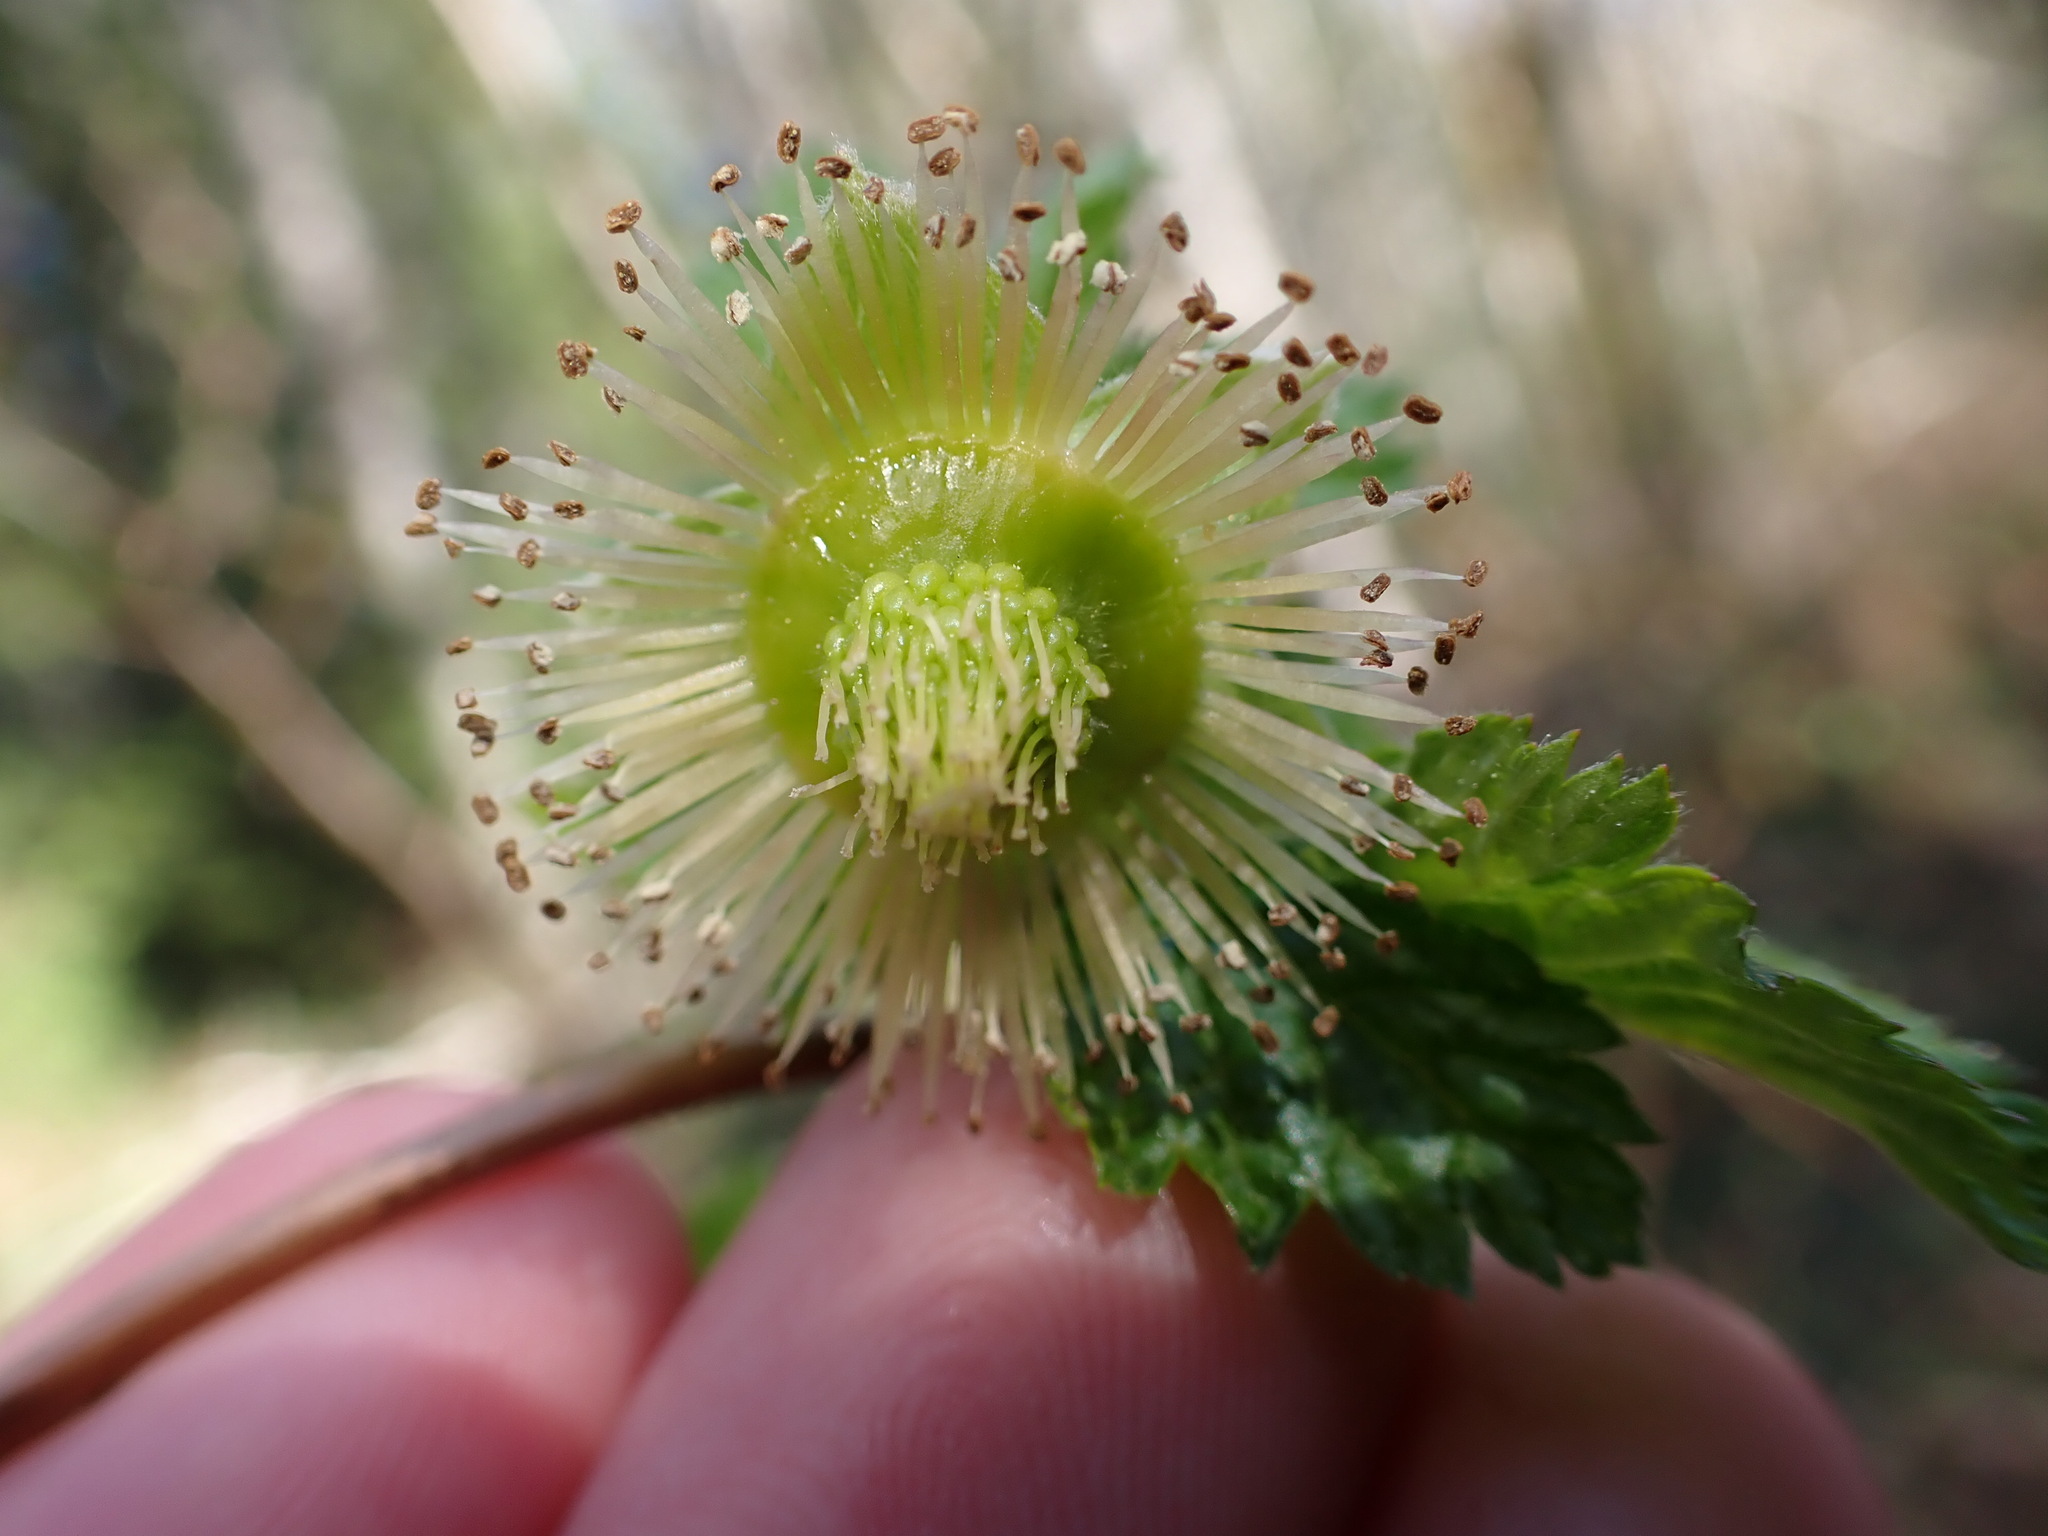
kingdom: Plantae
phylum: Tracheophyta
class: Magnoliopsida
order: Rosales
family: Rosaceae
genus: Rubus
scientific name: Rubus spectabilis
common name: Salmonberry
